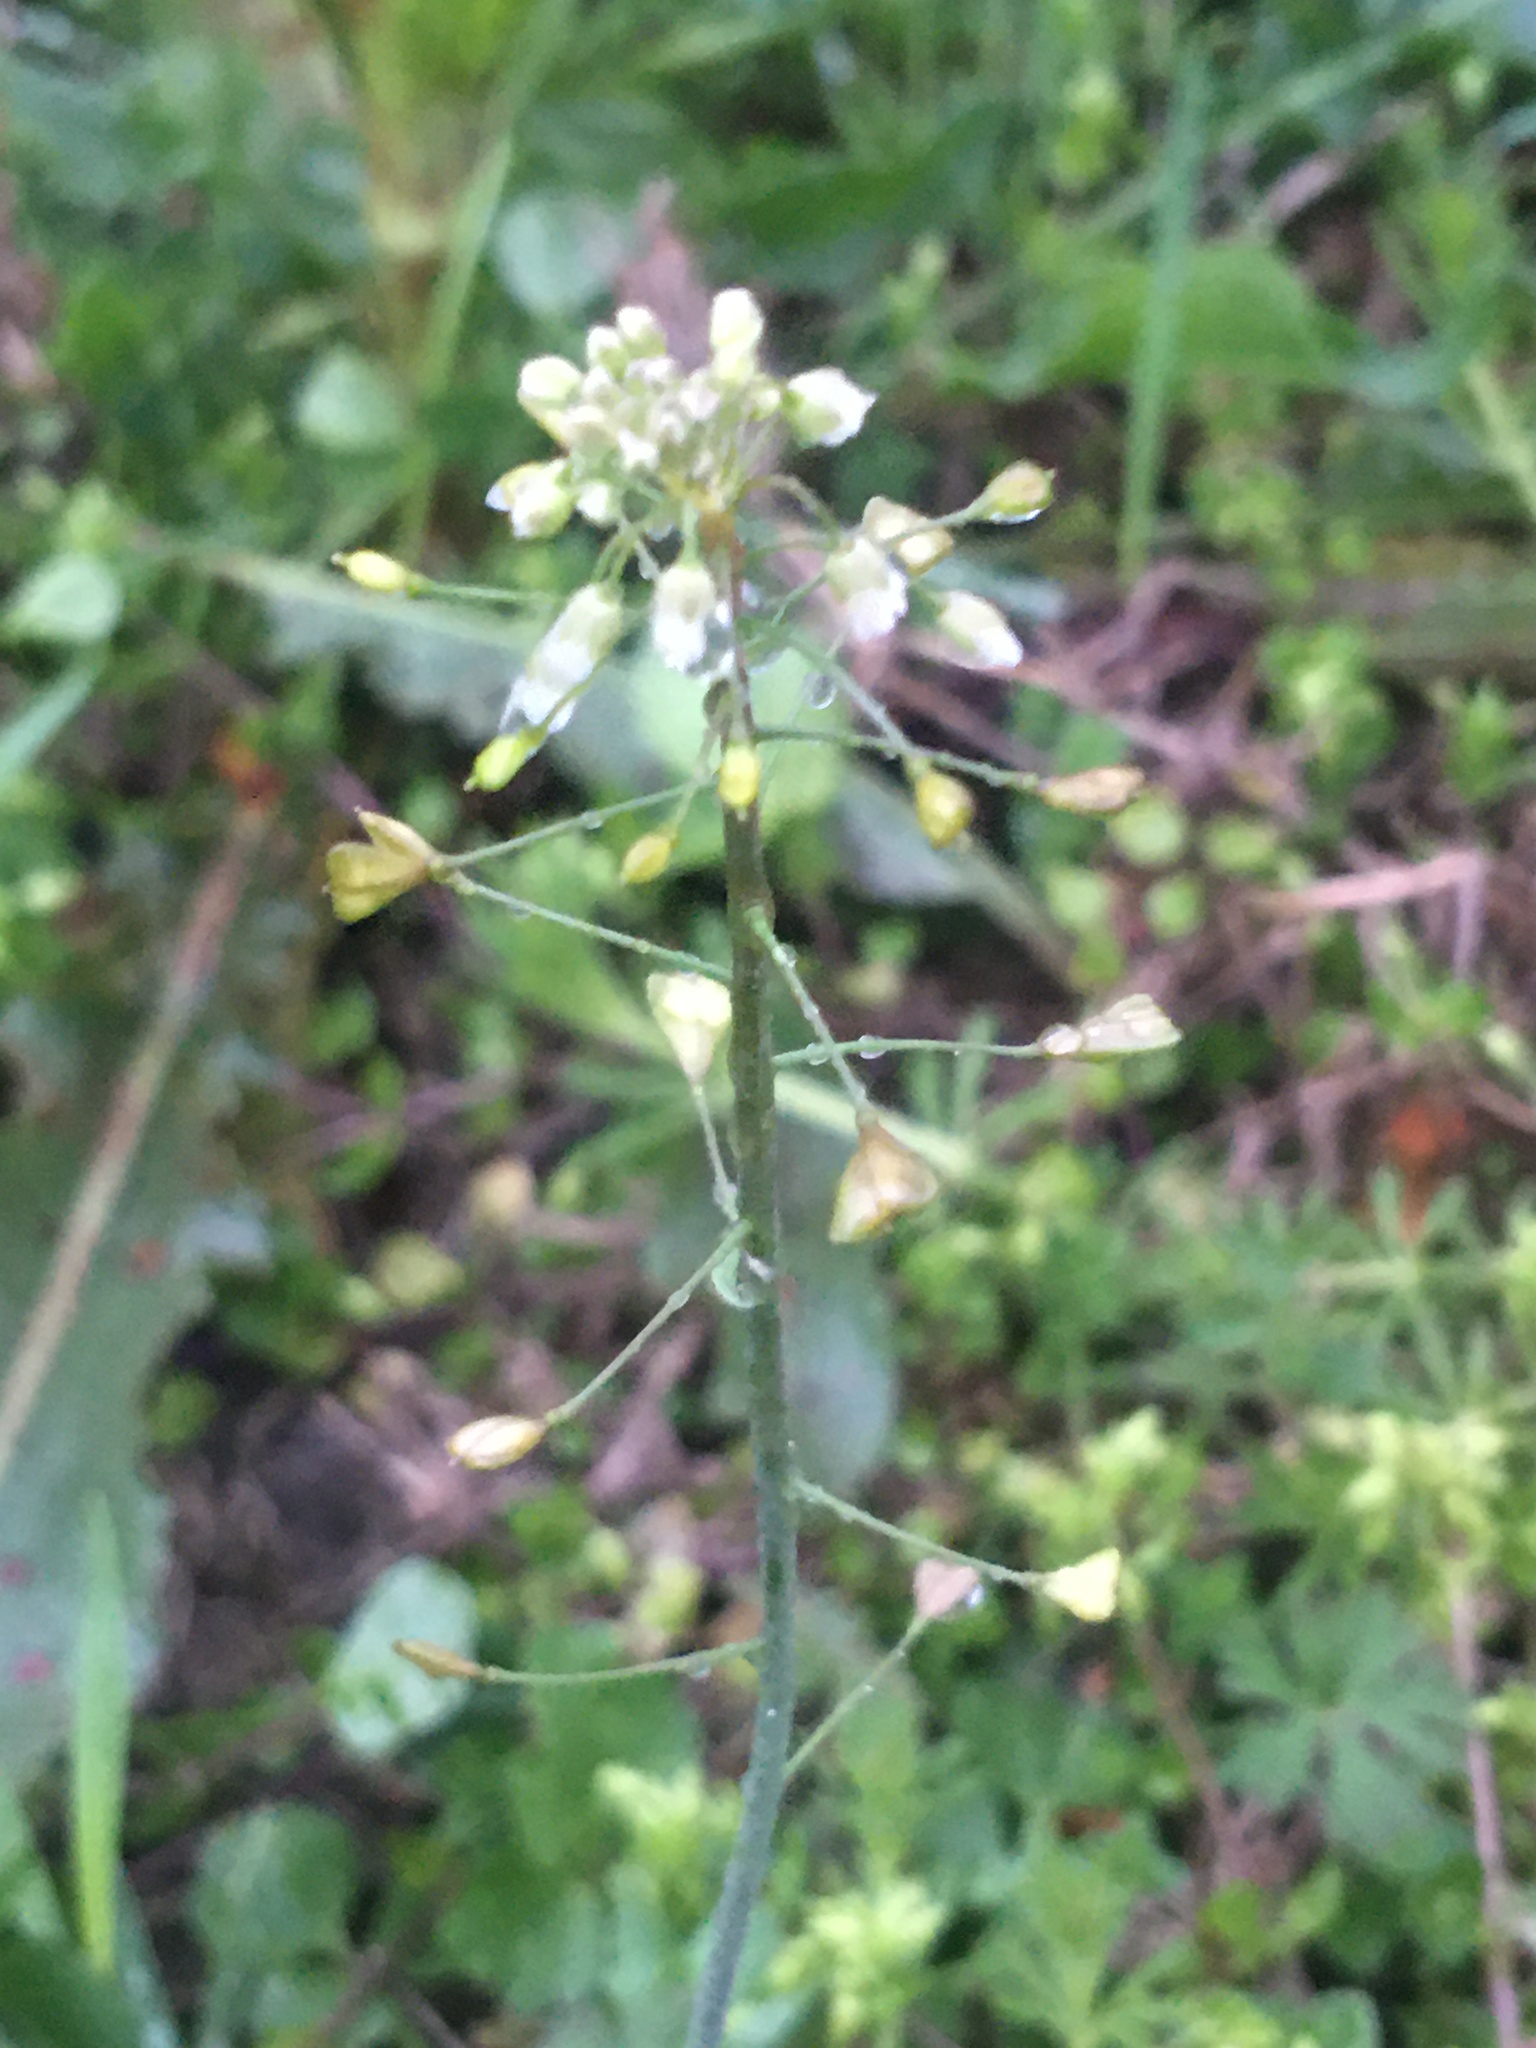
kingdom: Plantae
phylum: Tracheophyta
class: Magnoliopsida
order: Brassicales
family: Brassicaceae
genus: Capsella
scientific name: Capsella bursa-pastoris
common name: Shepherd's purse
